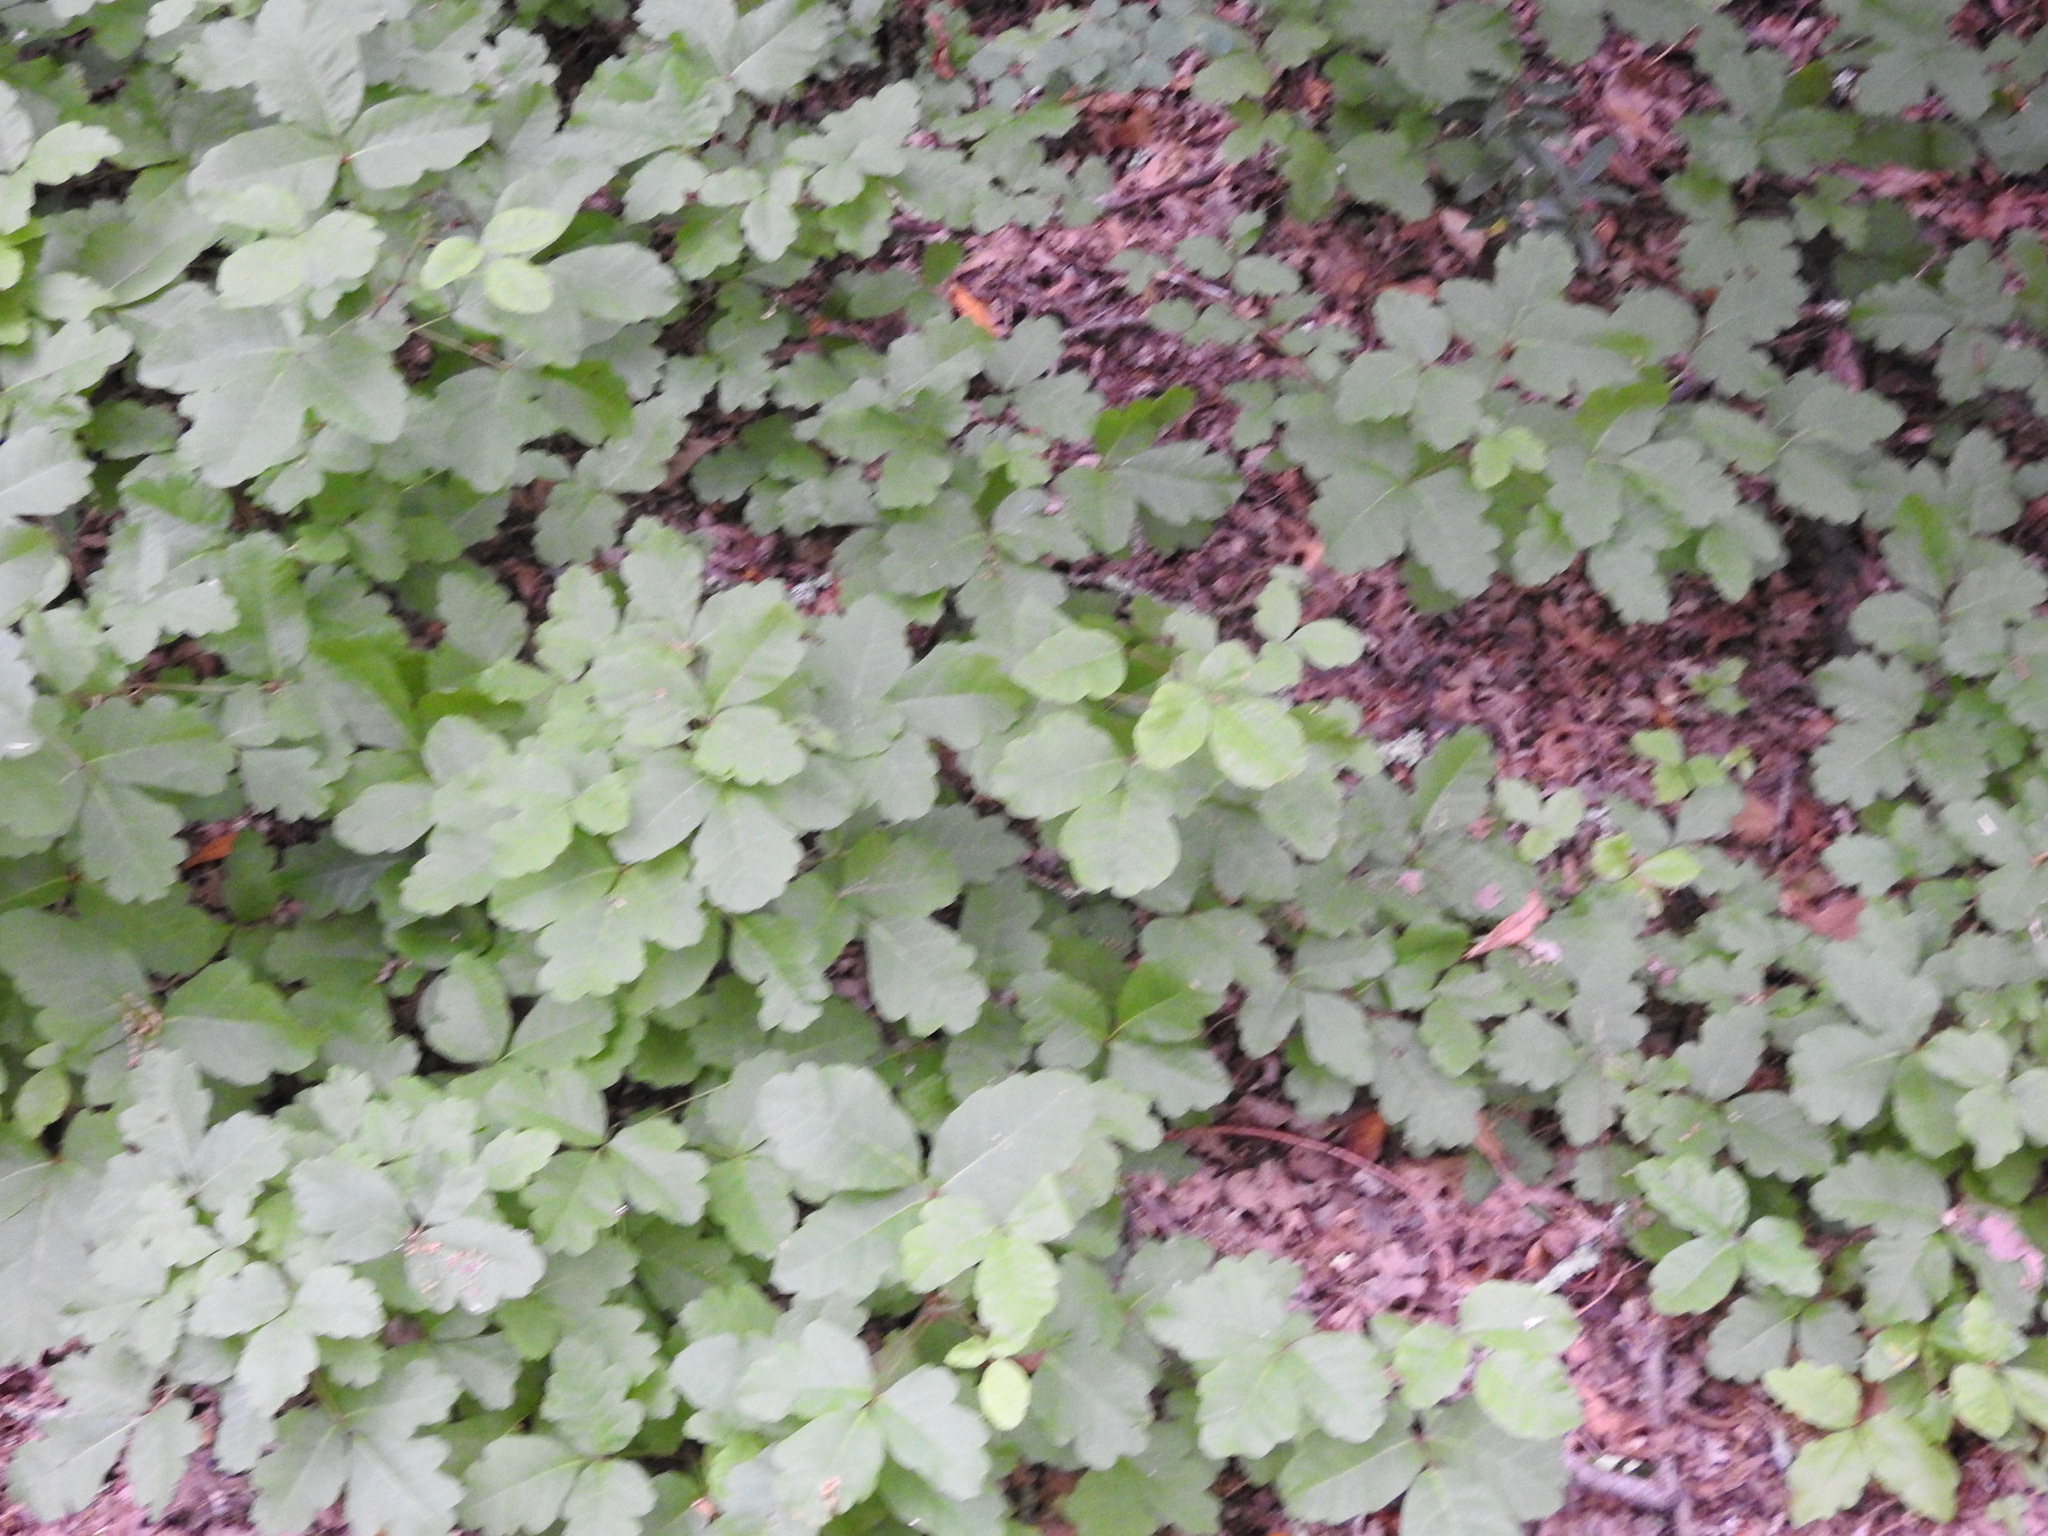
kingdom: Plantae
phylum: Tracheophyta
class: Magnoliopsida
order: Sapindales
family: Anacardiaceae
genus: Toxicodendron
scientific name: Toxicodendron diversilobum
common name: Pacific poison-oak
